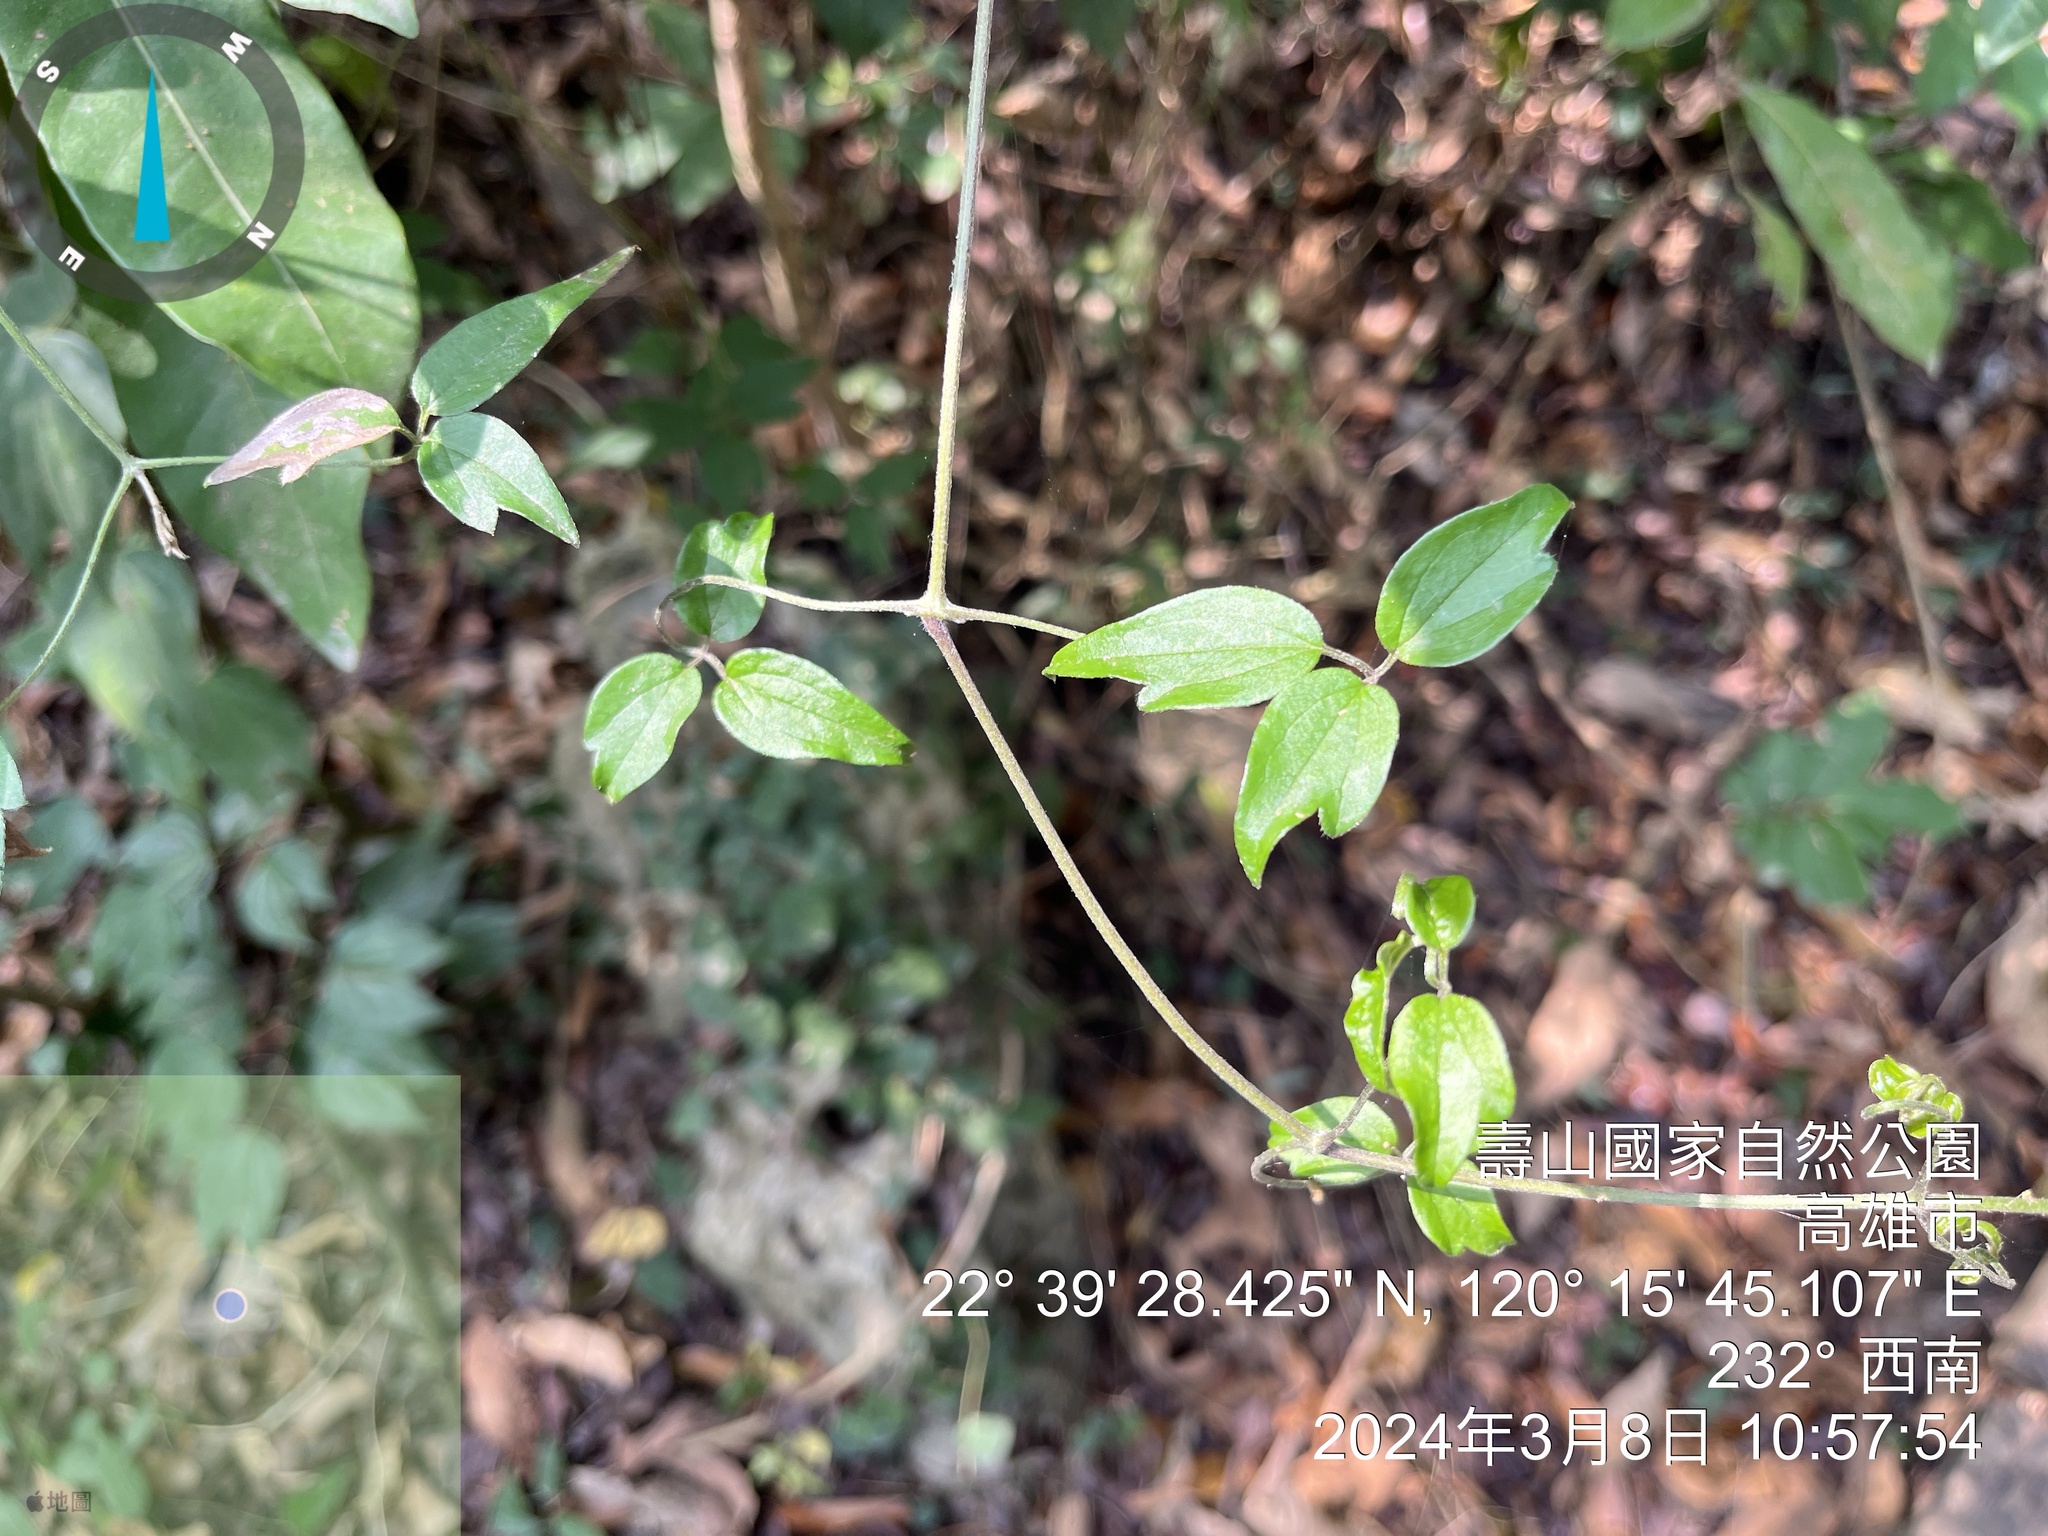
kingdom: Plantae
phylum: Tracheophyta
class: Magnoliopsida
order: Ranunculales
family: Ranunculaceae
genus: Clematis
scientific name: Clematis formosana
